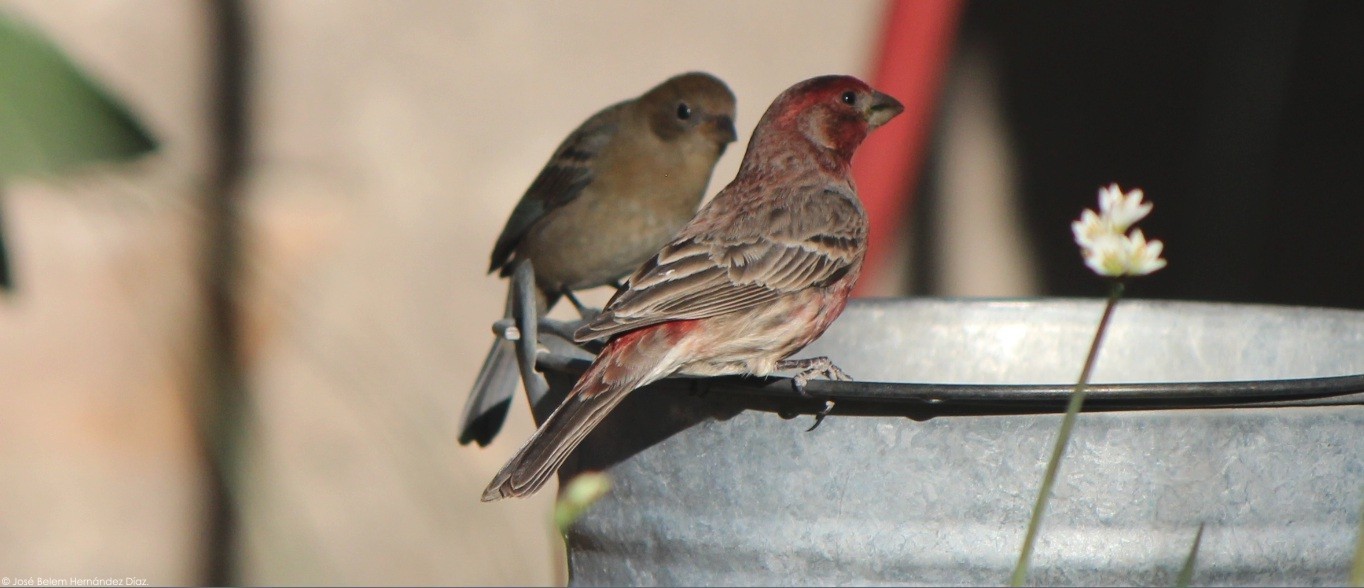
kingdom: Animalia
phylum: Chordata
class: Aves
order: Passeriformes
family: Fringillidae
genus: Haemorhous
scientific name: Haemorhous mexicanus
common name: House finch
